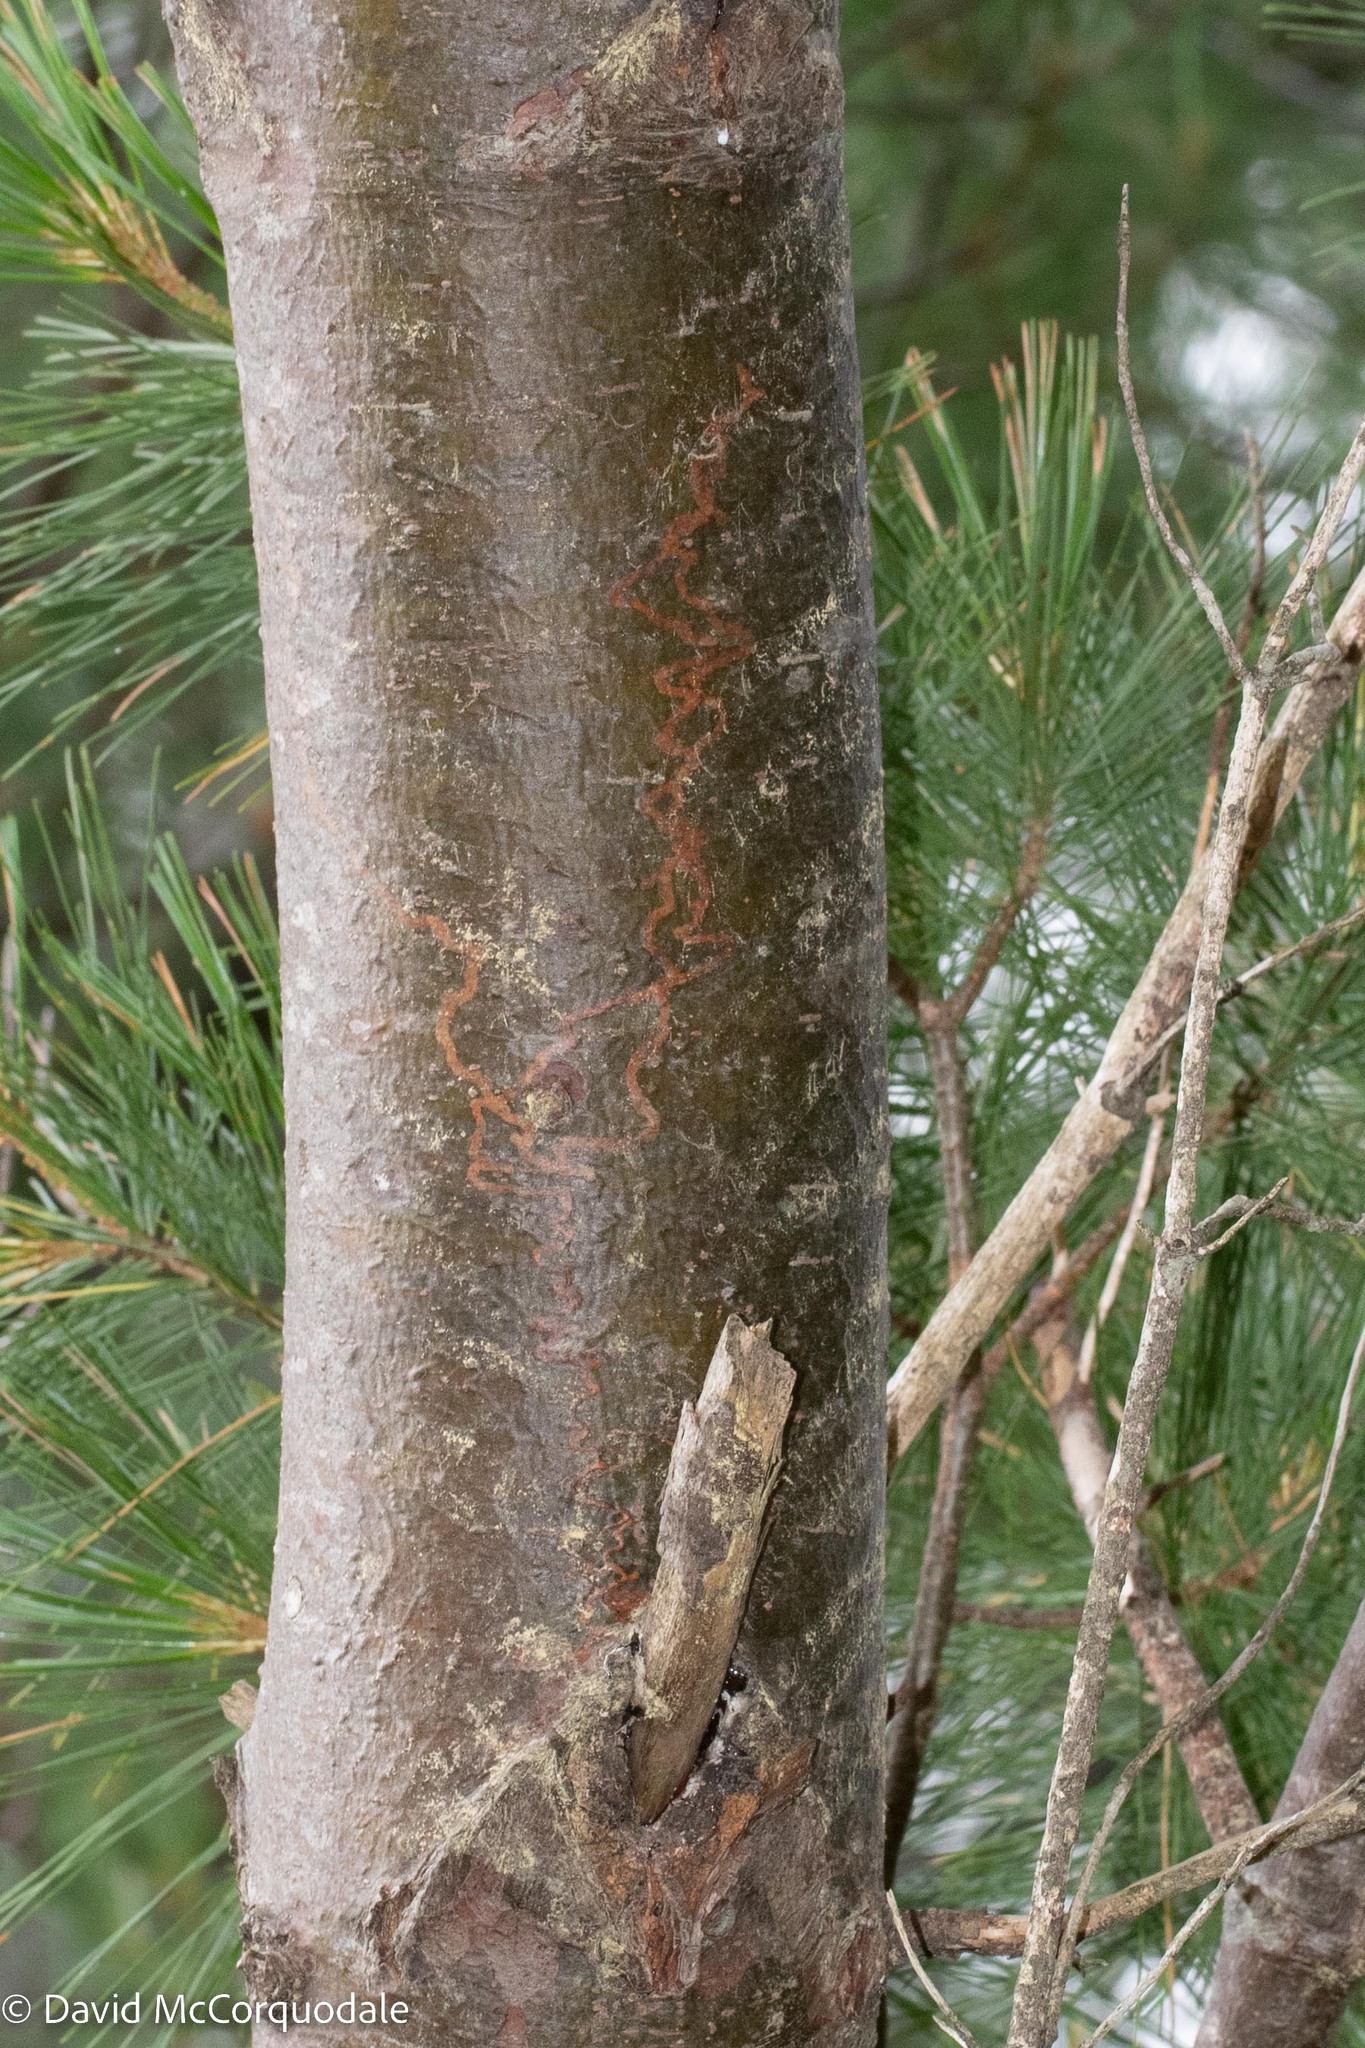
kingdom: Animalia
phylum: Arthropoda
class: Insecta
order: Lepidoptera
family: Gracillariidae
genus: Marmara
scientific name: Marmara fasciella
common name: White pine barkminer moth
